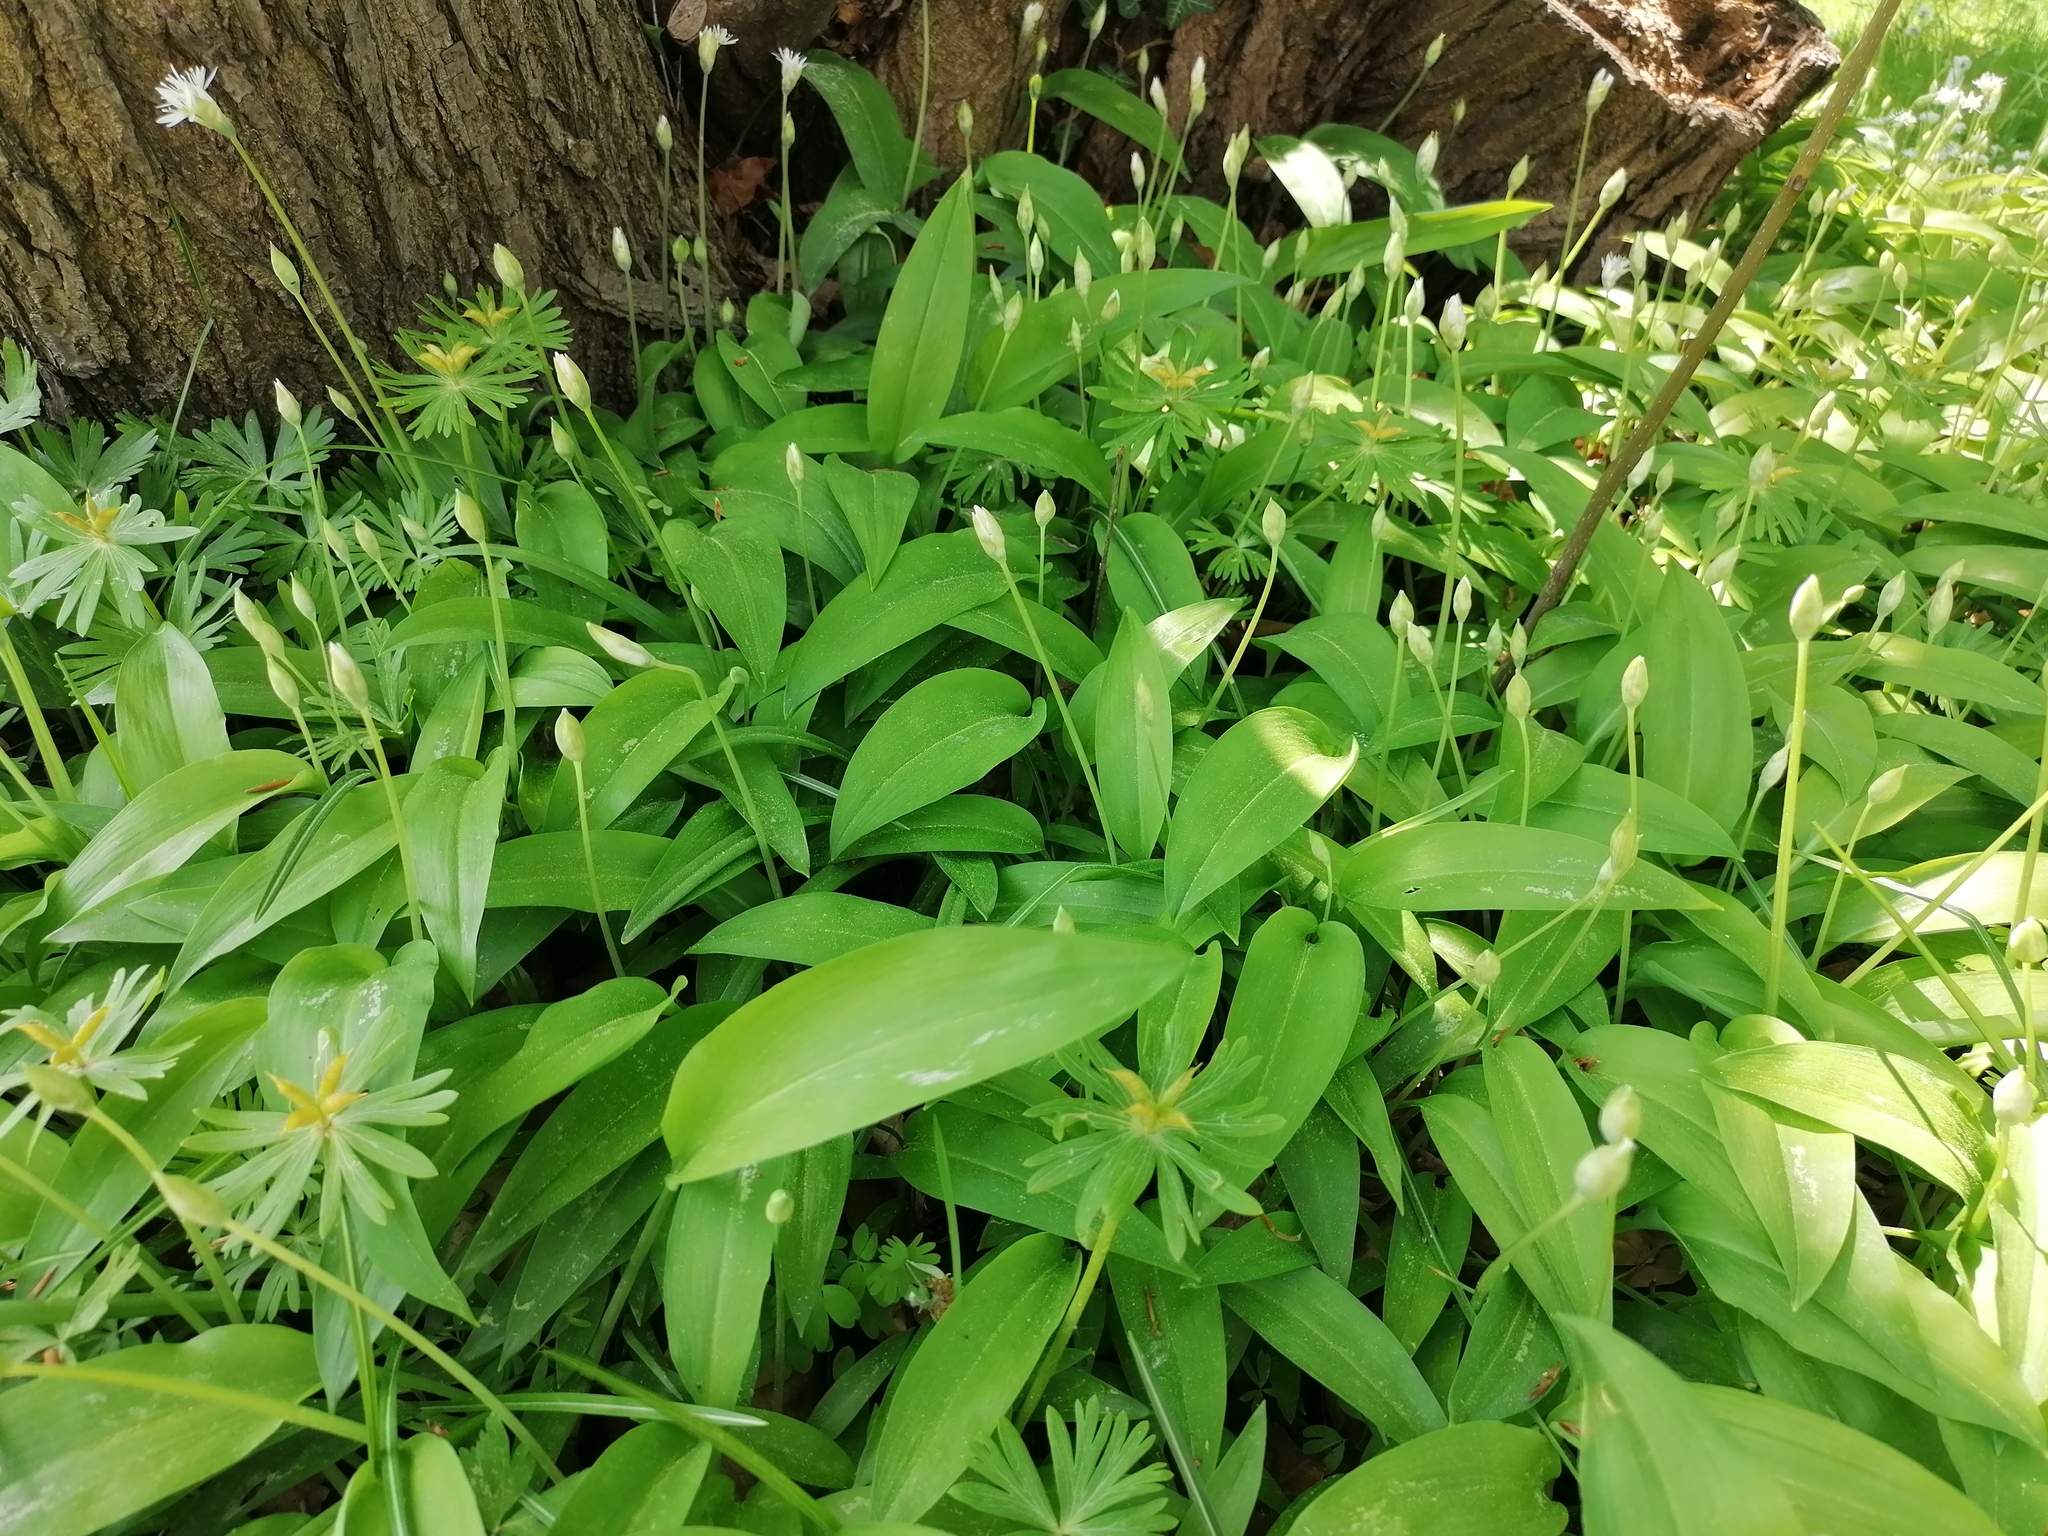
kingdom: Plantae
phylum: Tracheophyta
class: Liliopsida
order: Asparagales
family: Amaryllidaceae
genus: Allium
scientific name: Allium ursinum
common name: Ramsons
